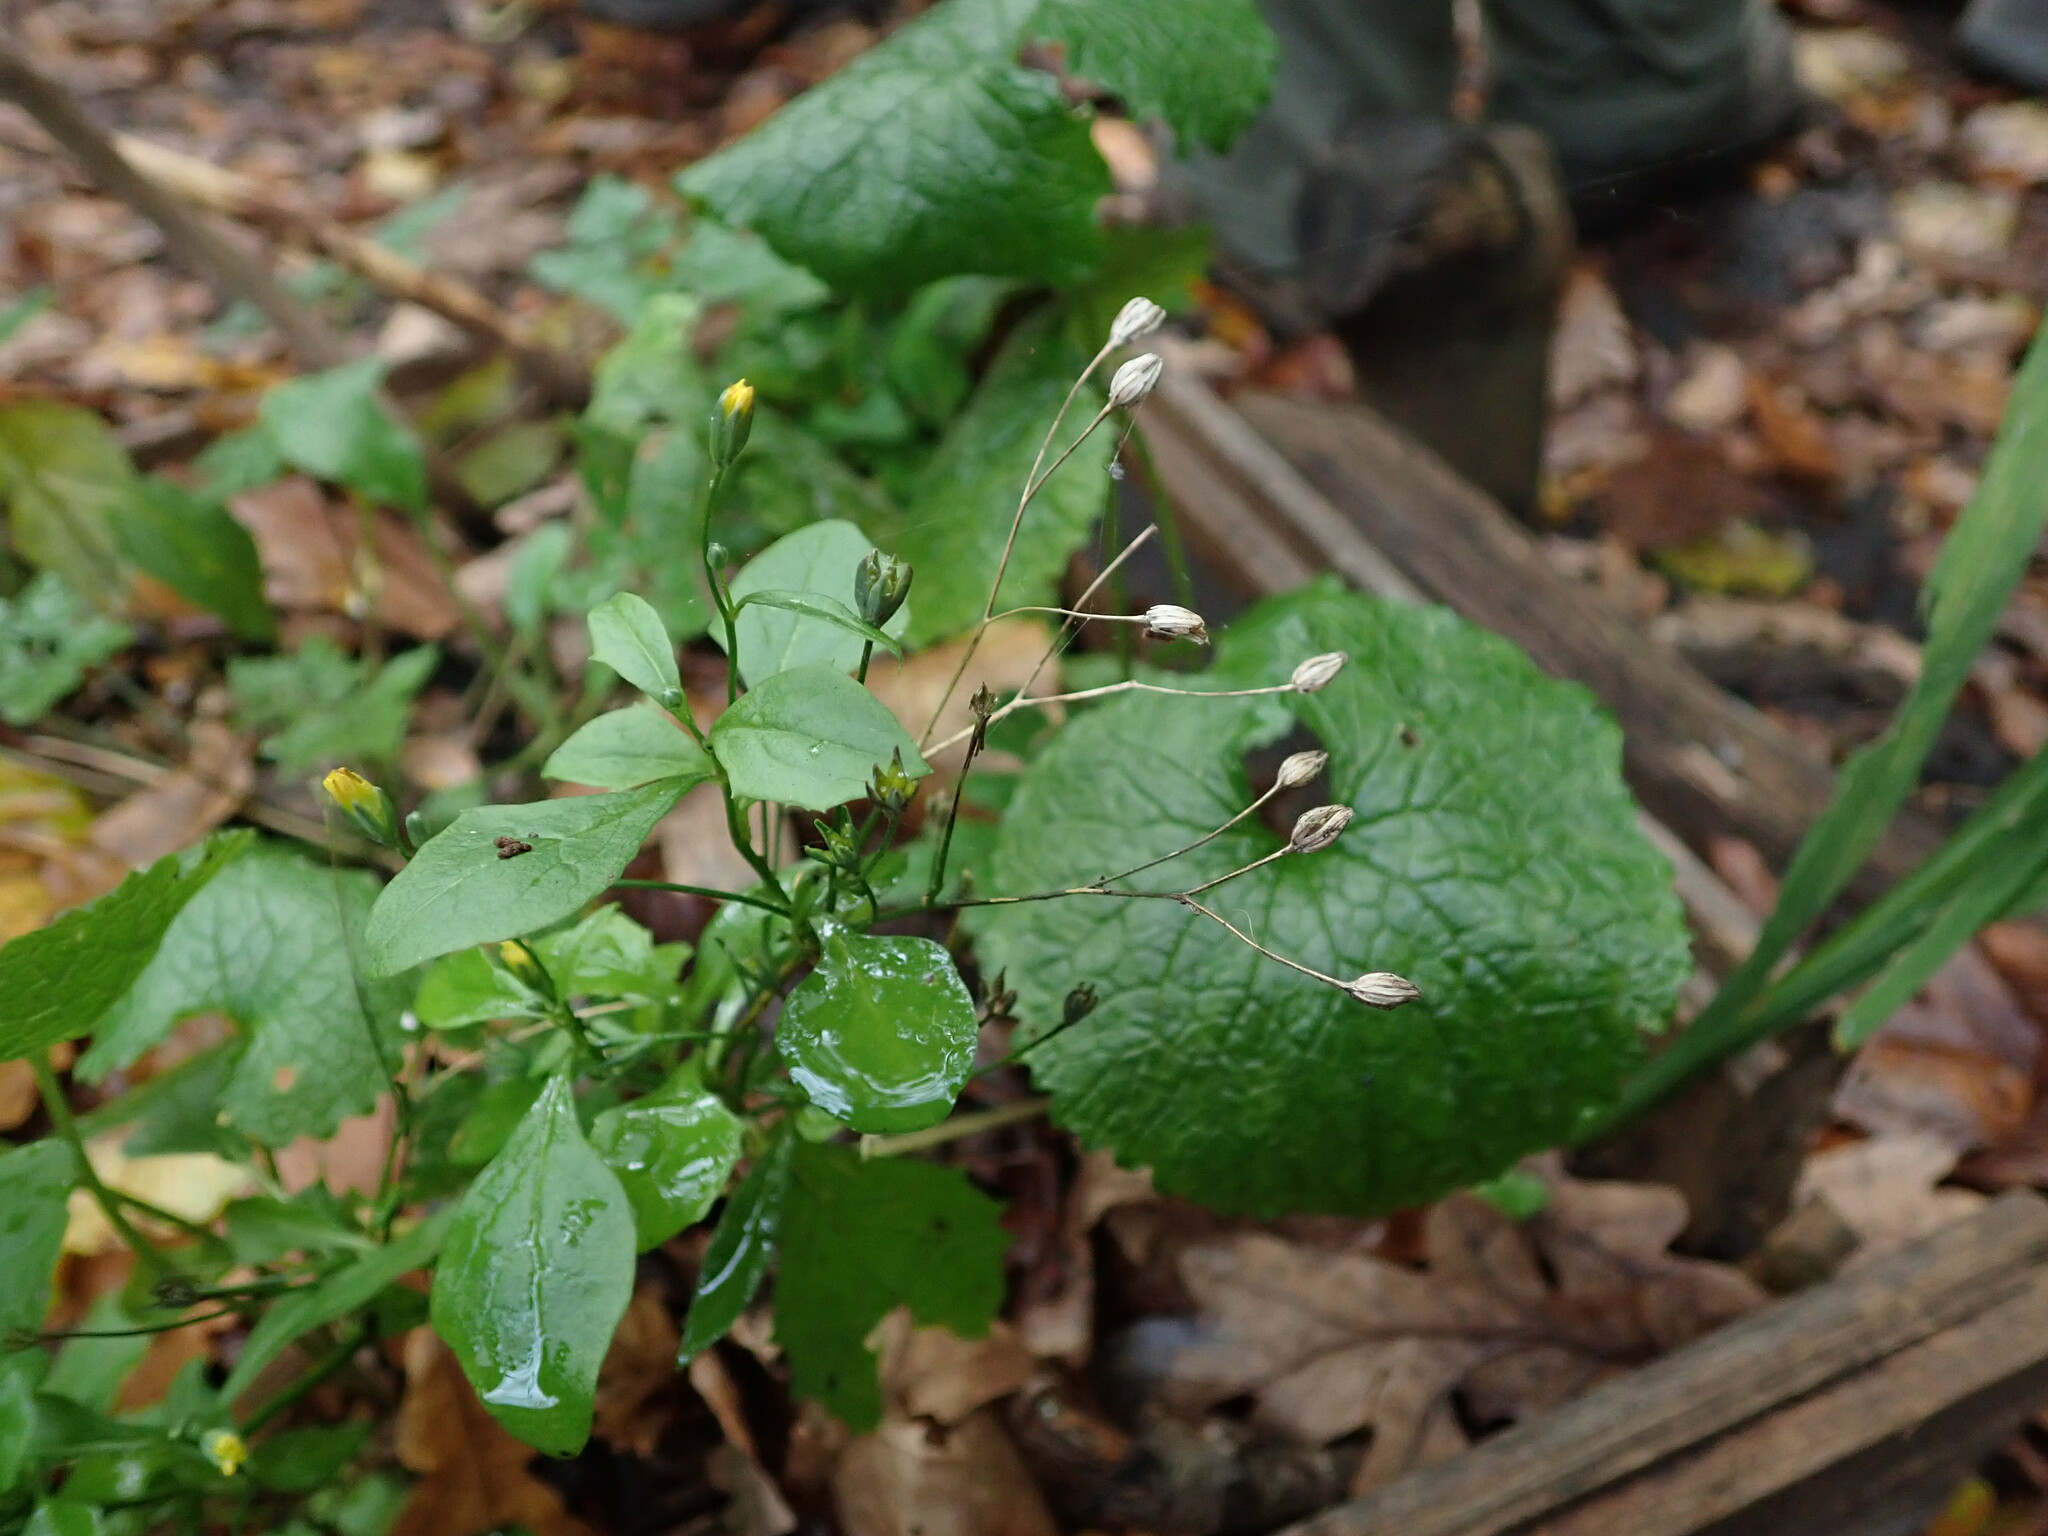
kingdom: Plantae
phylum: Tracheophyta
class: Magnoliopsida
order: Asterales
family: Asteraceae
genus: Lapsana
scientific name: Lapsana communis
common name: Nipplewort
